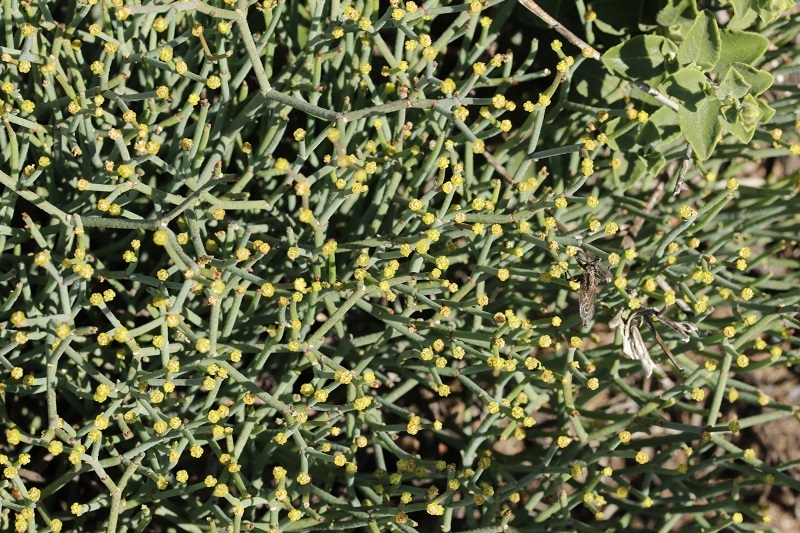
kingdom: Plantae
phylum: Tracheophyta
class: Magnoliopsida
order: Malpighiales
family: Euphorbiaceae
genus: Euphorbia
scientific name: Euphorbia tenax
